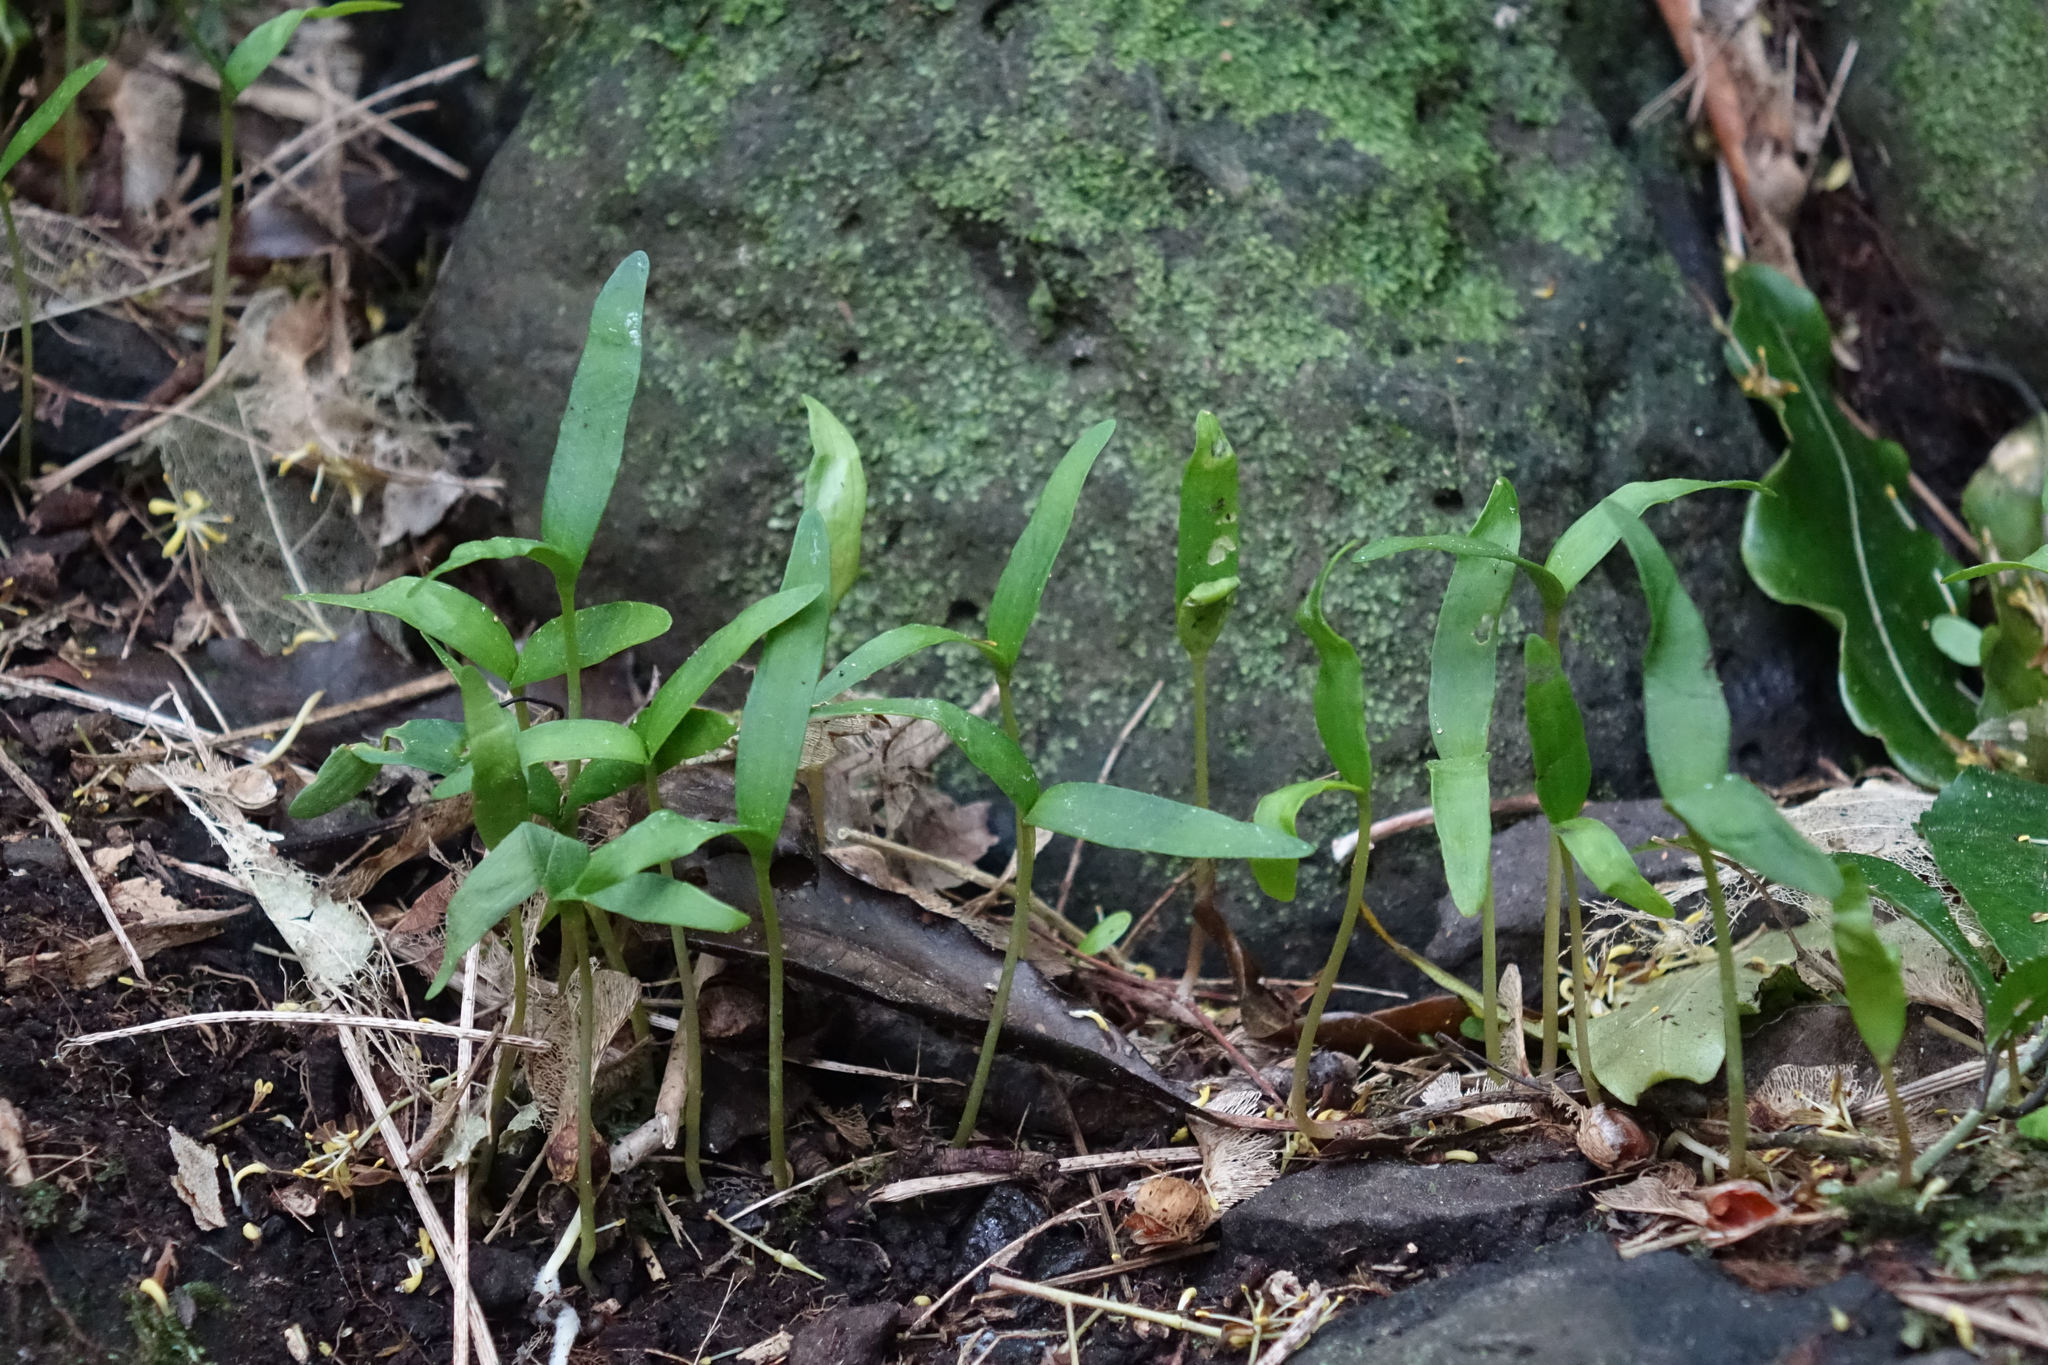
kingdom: Plantae
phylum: Tracheophyta
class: Magnoliopsida
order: Sapindales
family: Sapindaceae
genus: Acer
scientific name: Acer pseudoplatanus
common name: Sycamore
